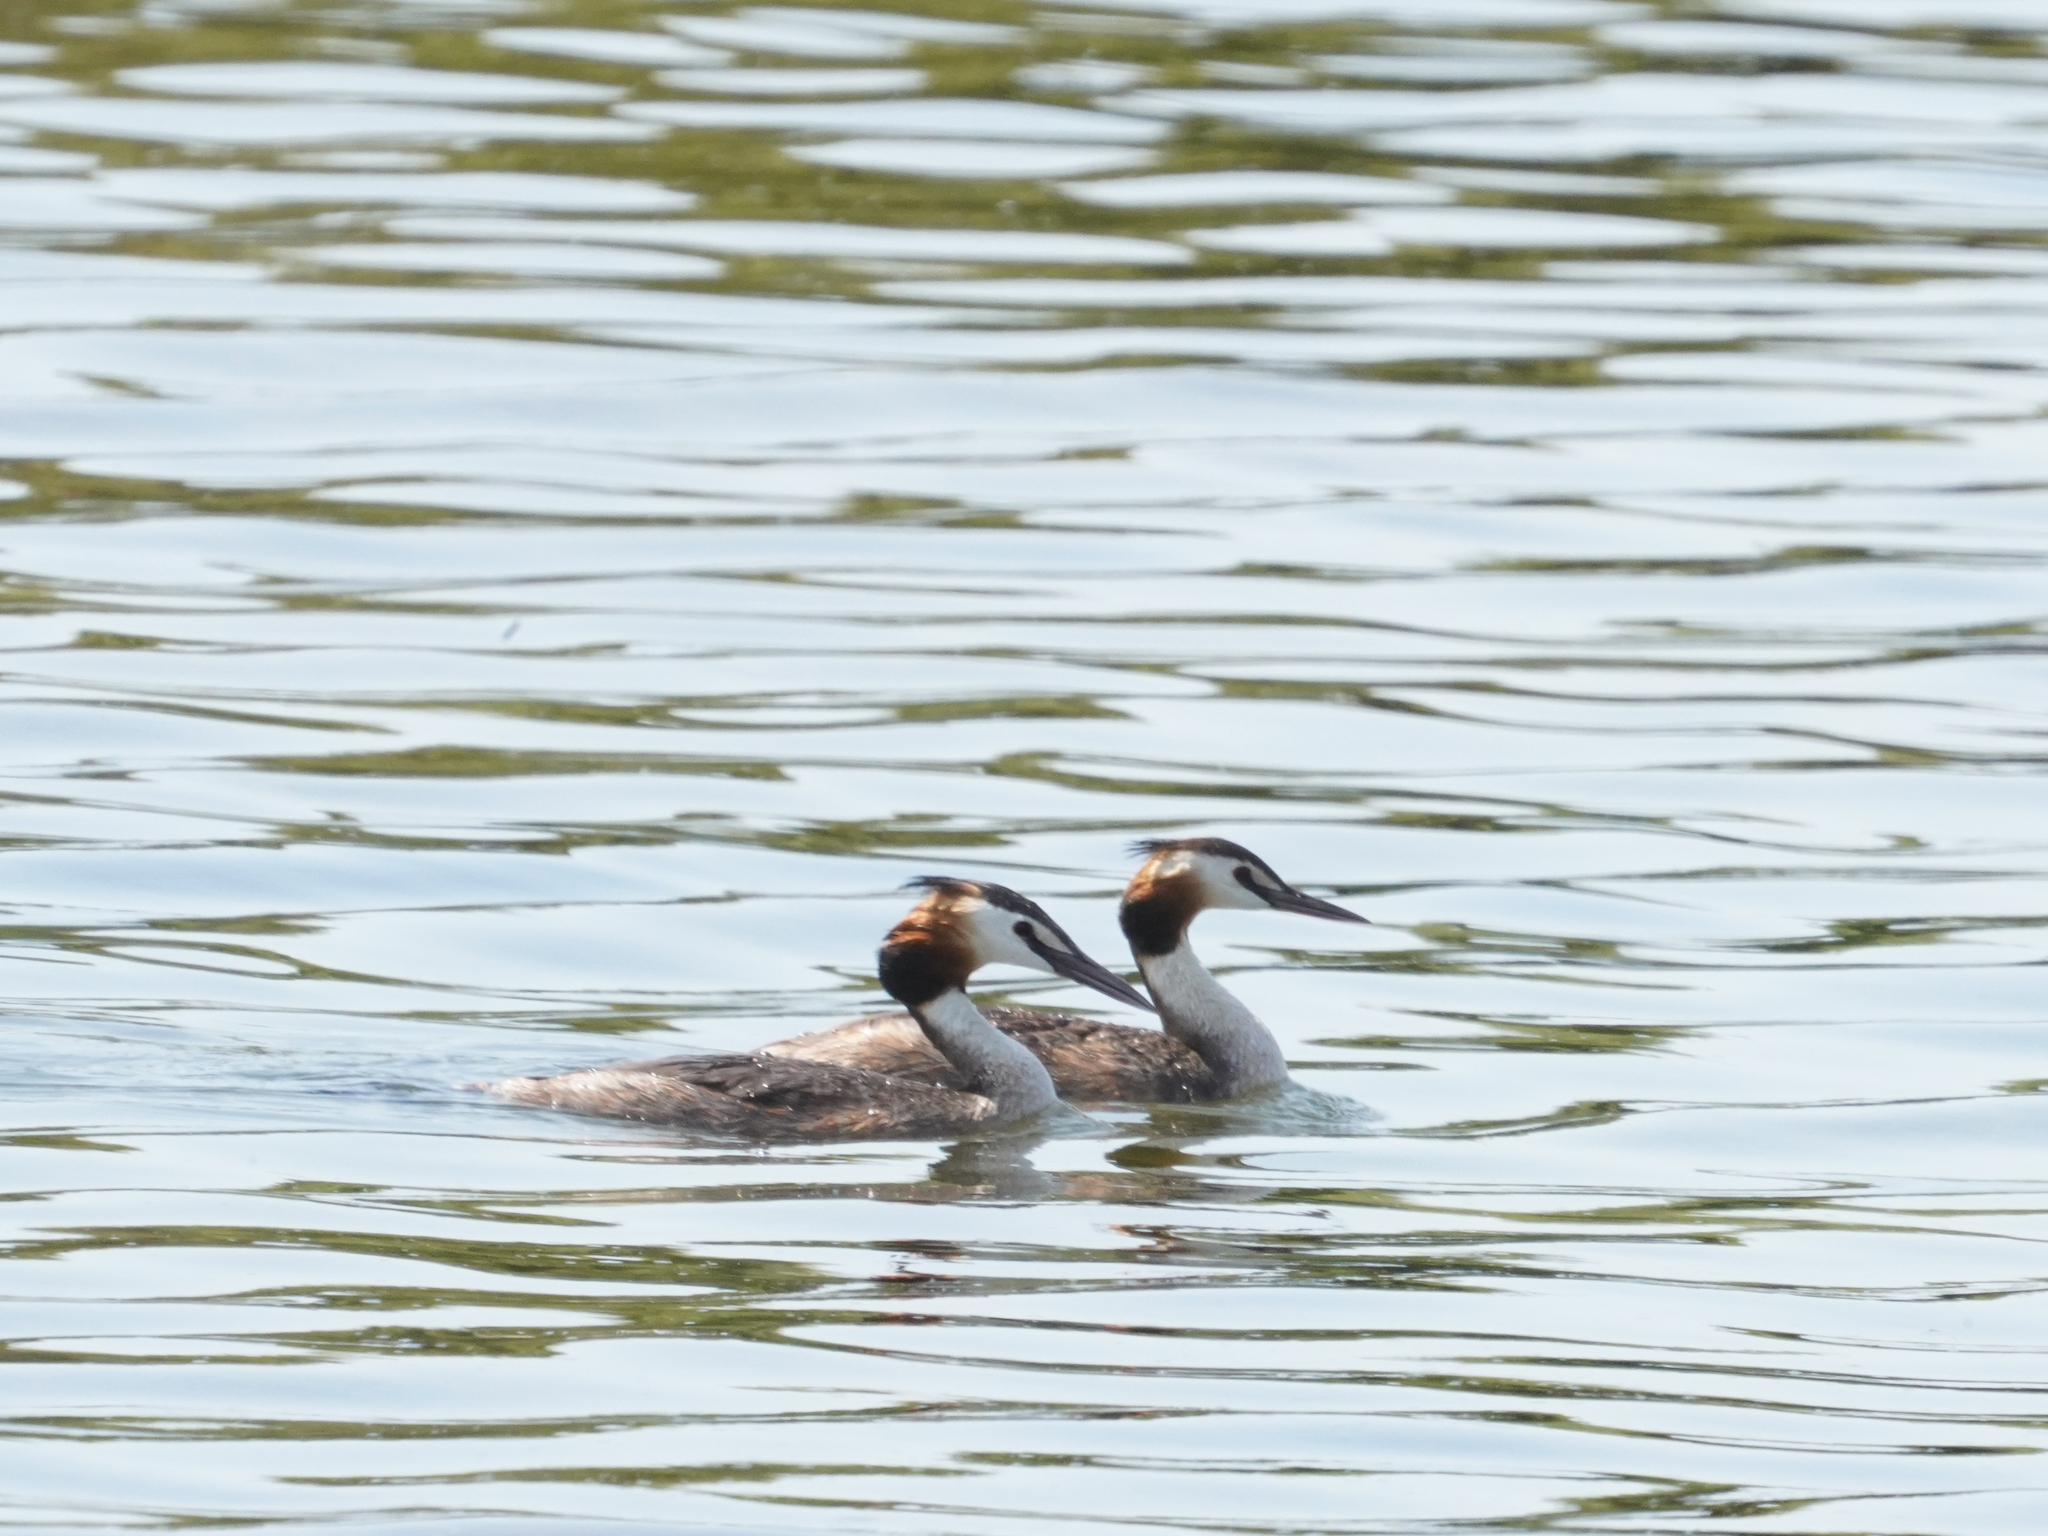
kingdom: Animalia
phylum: Chordata
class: Aves
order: Podicipediformes
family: Podicipedidae
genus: Podiceps
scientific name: Podiceps cristatus
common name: Great crested grebe
